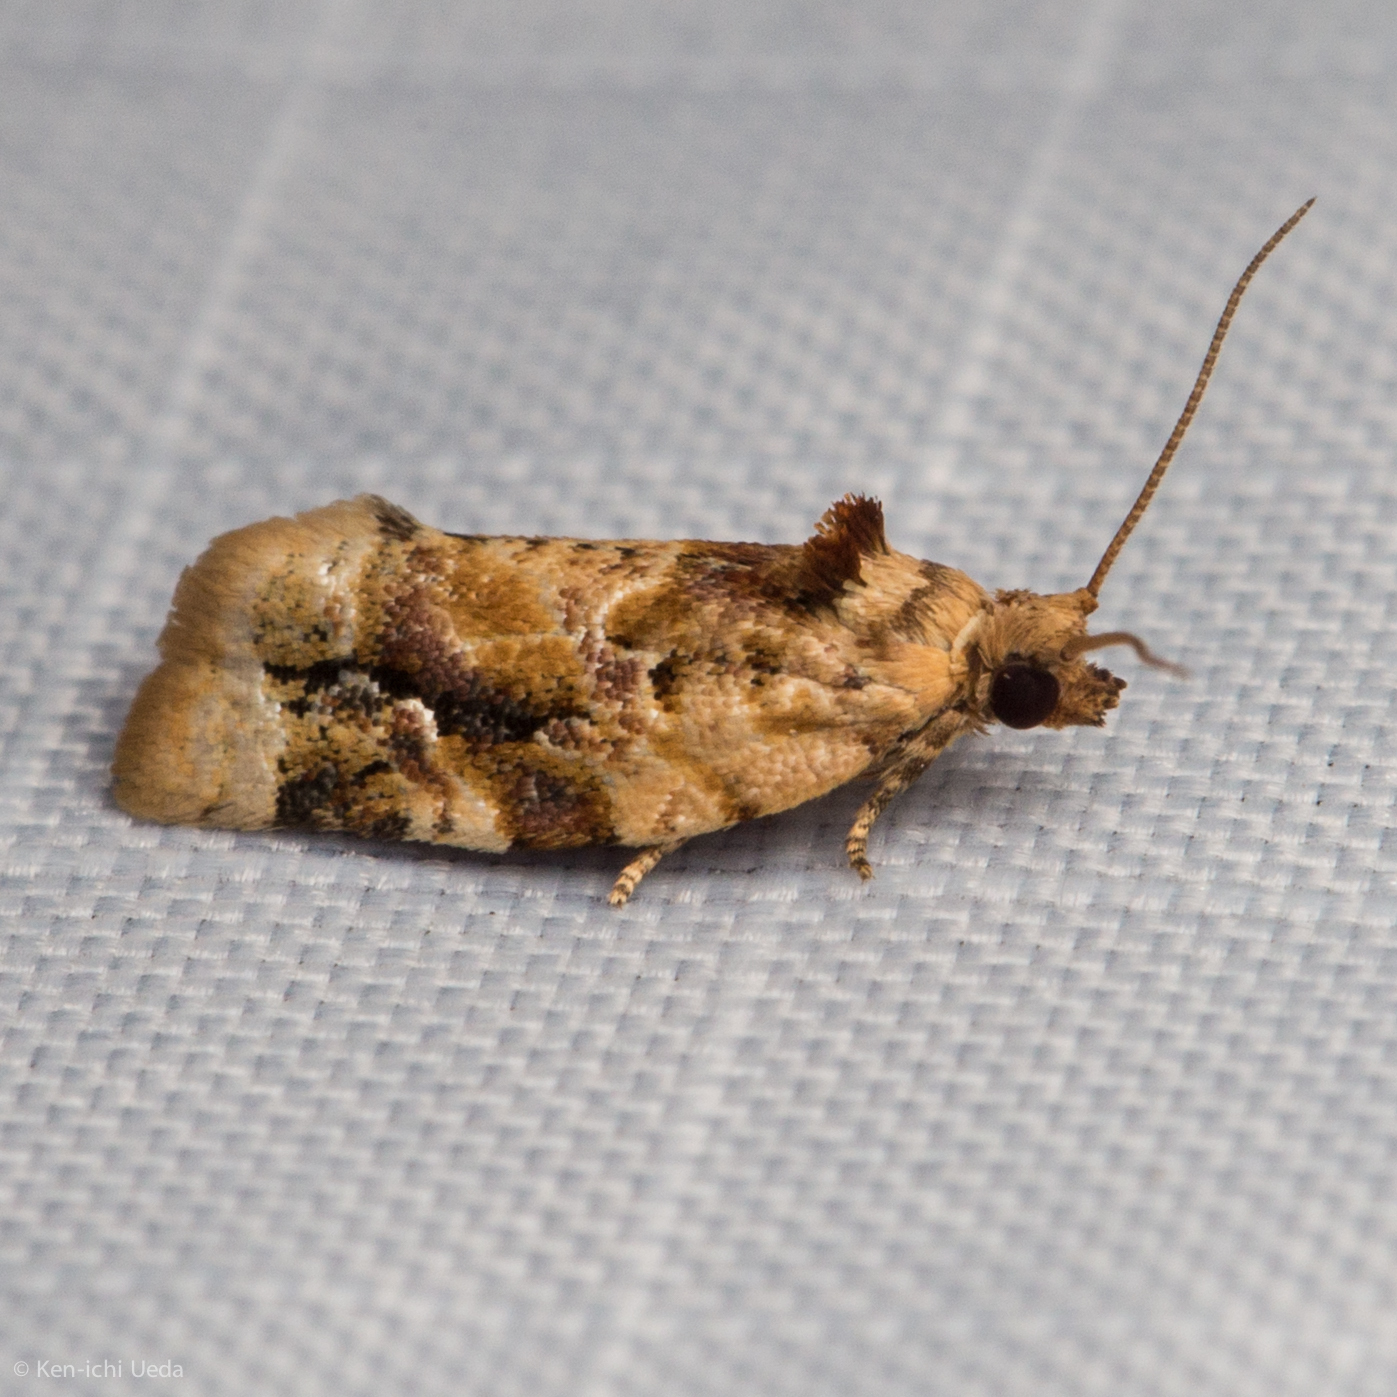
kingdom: Animalia
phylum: Arthropoda
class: Insecta
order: Lepidoptera
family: Tortricidae
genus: Argyrotaenia
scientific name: Argyrotaenia velutinana
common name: Red-banded leafroller moth
